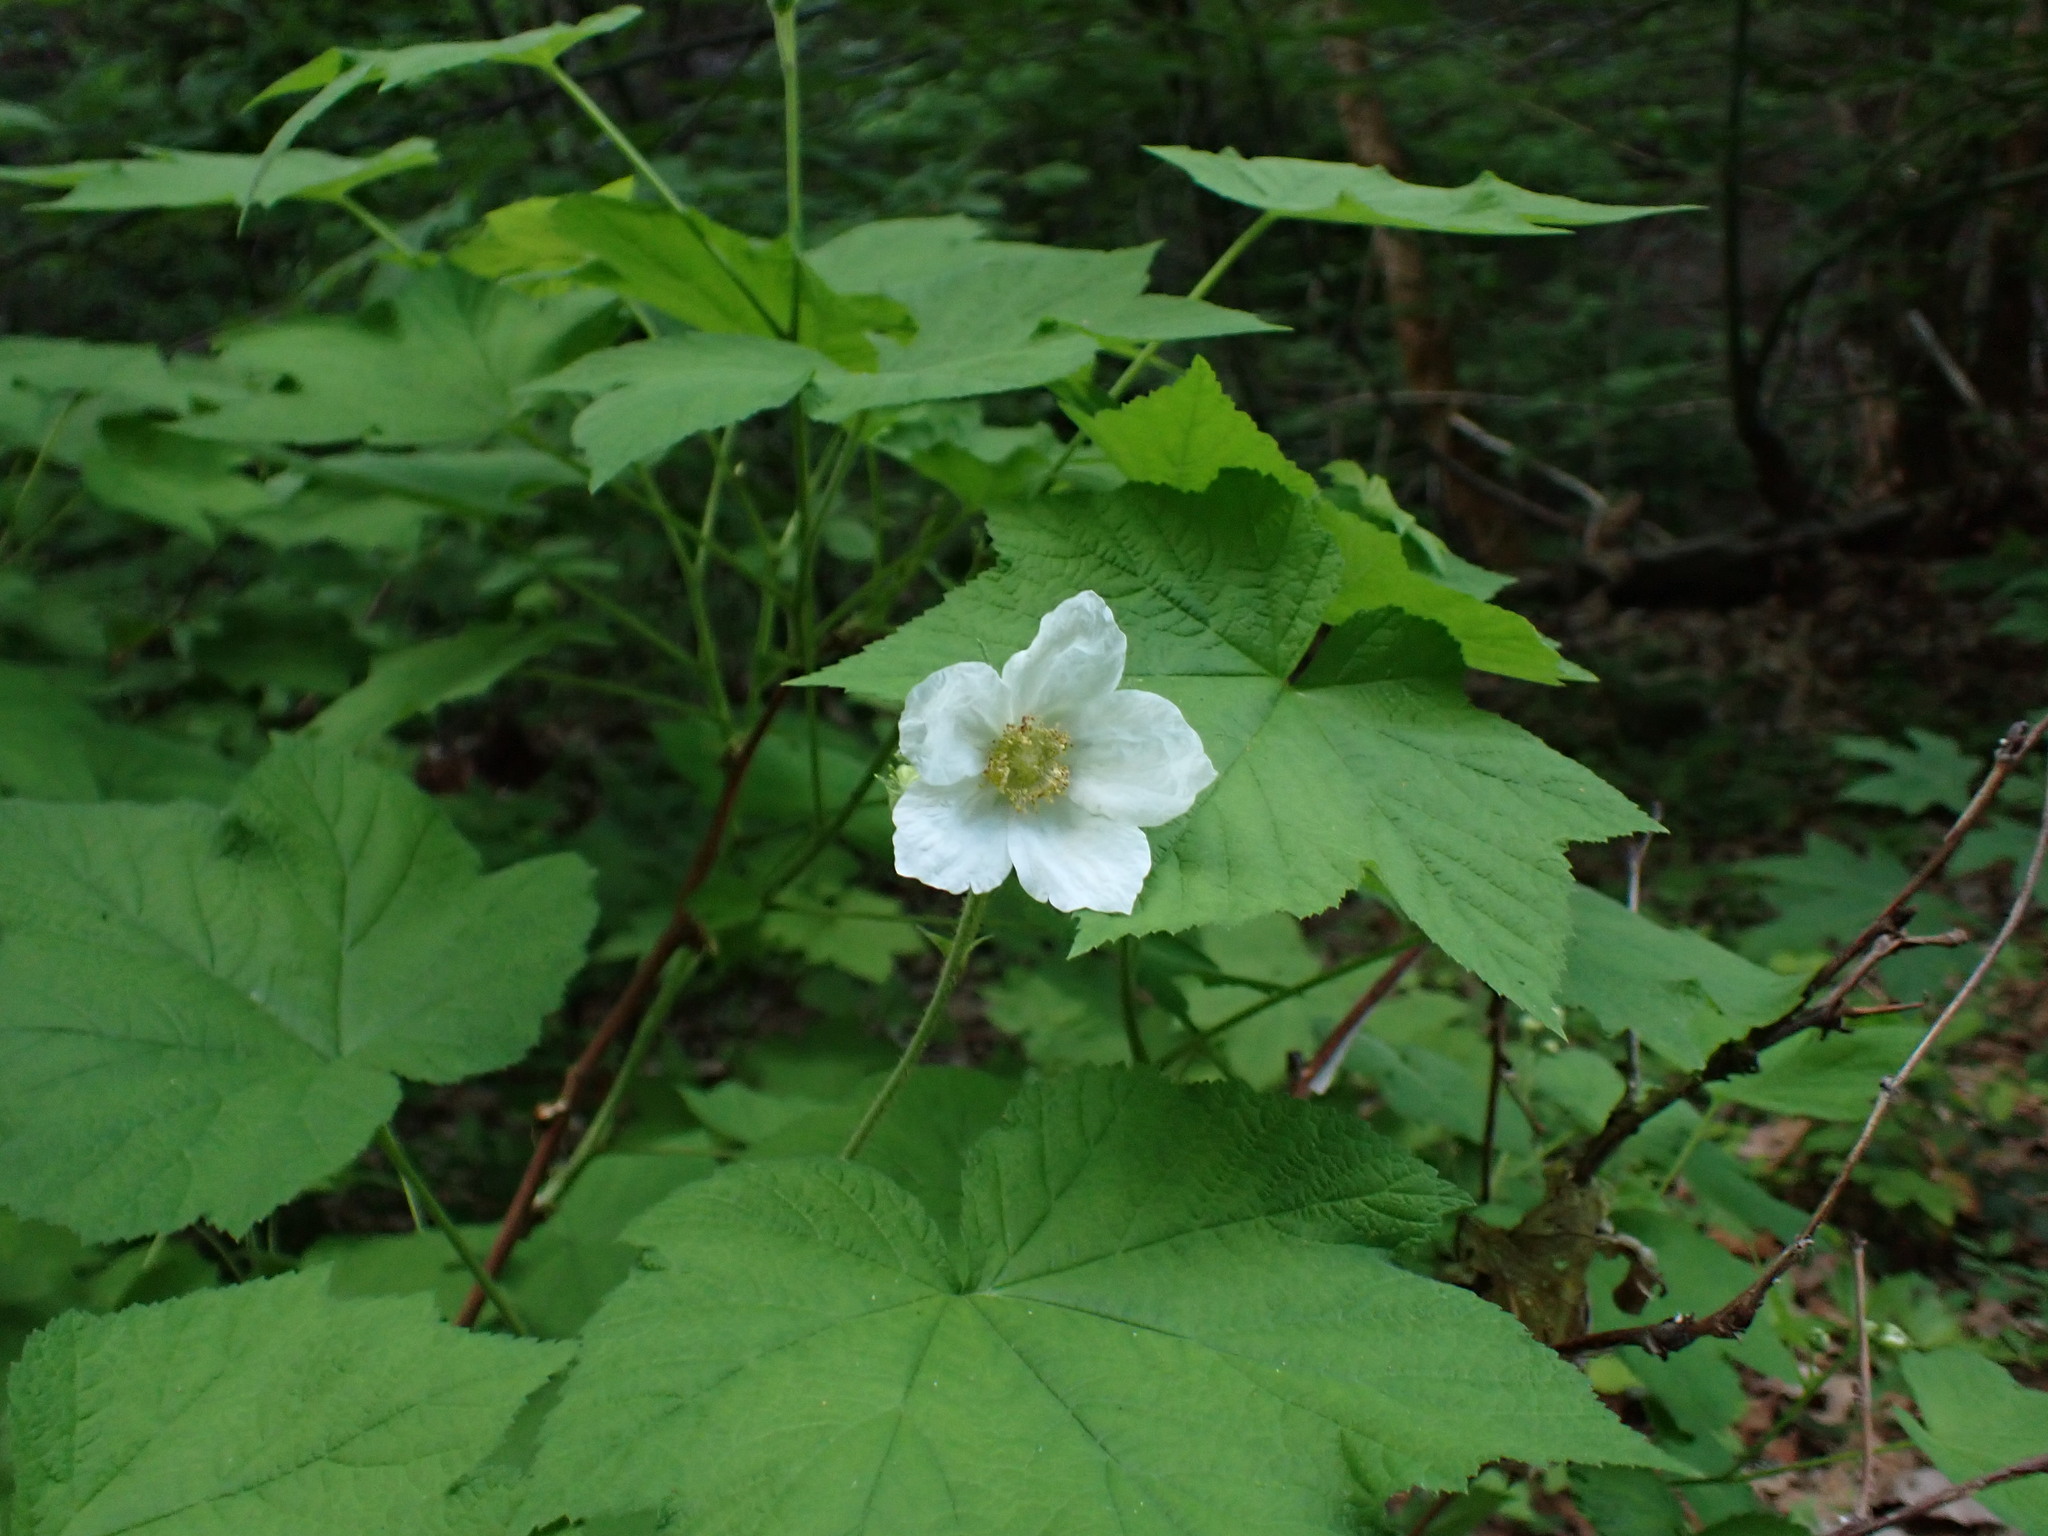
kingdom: Plantae
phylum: Tracheophyta
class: Magnoliopsida
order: Rosales
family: Rosaceae
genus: Rubus
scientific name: Rubus parviflorus
